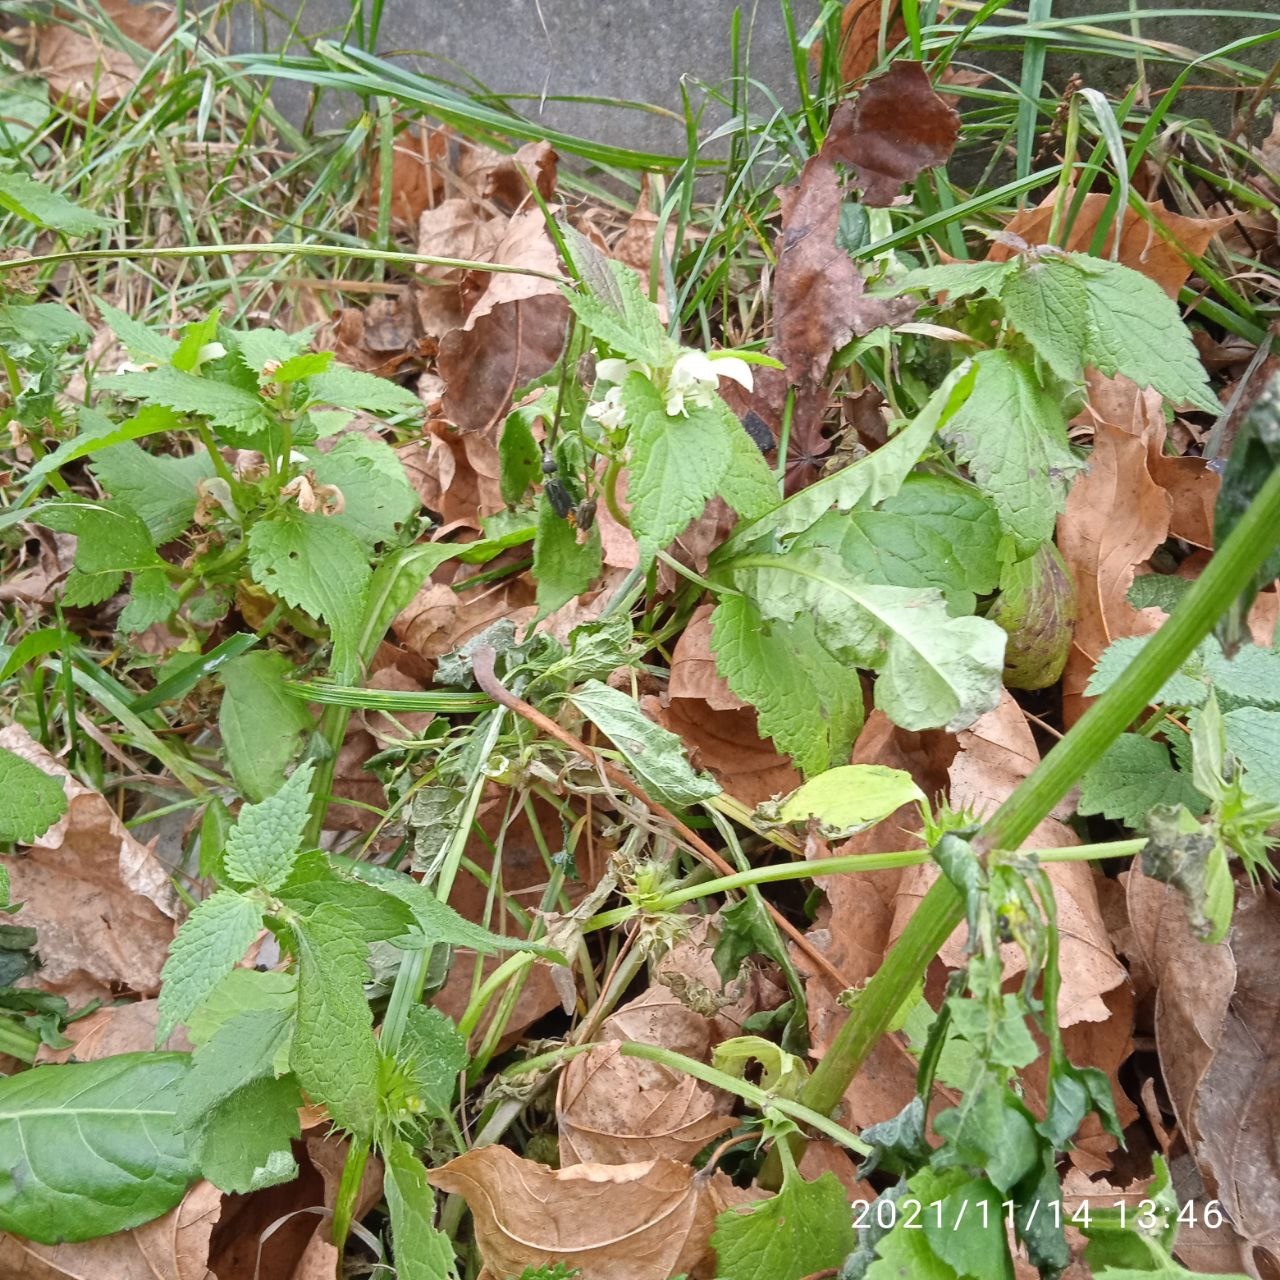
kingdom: Plantae
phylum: Tracheophyta
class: Magnoliopsida
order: Lamiales
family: Lamiaceae
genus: Lamium
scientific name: Lamium album
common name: White dead-nettle
